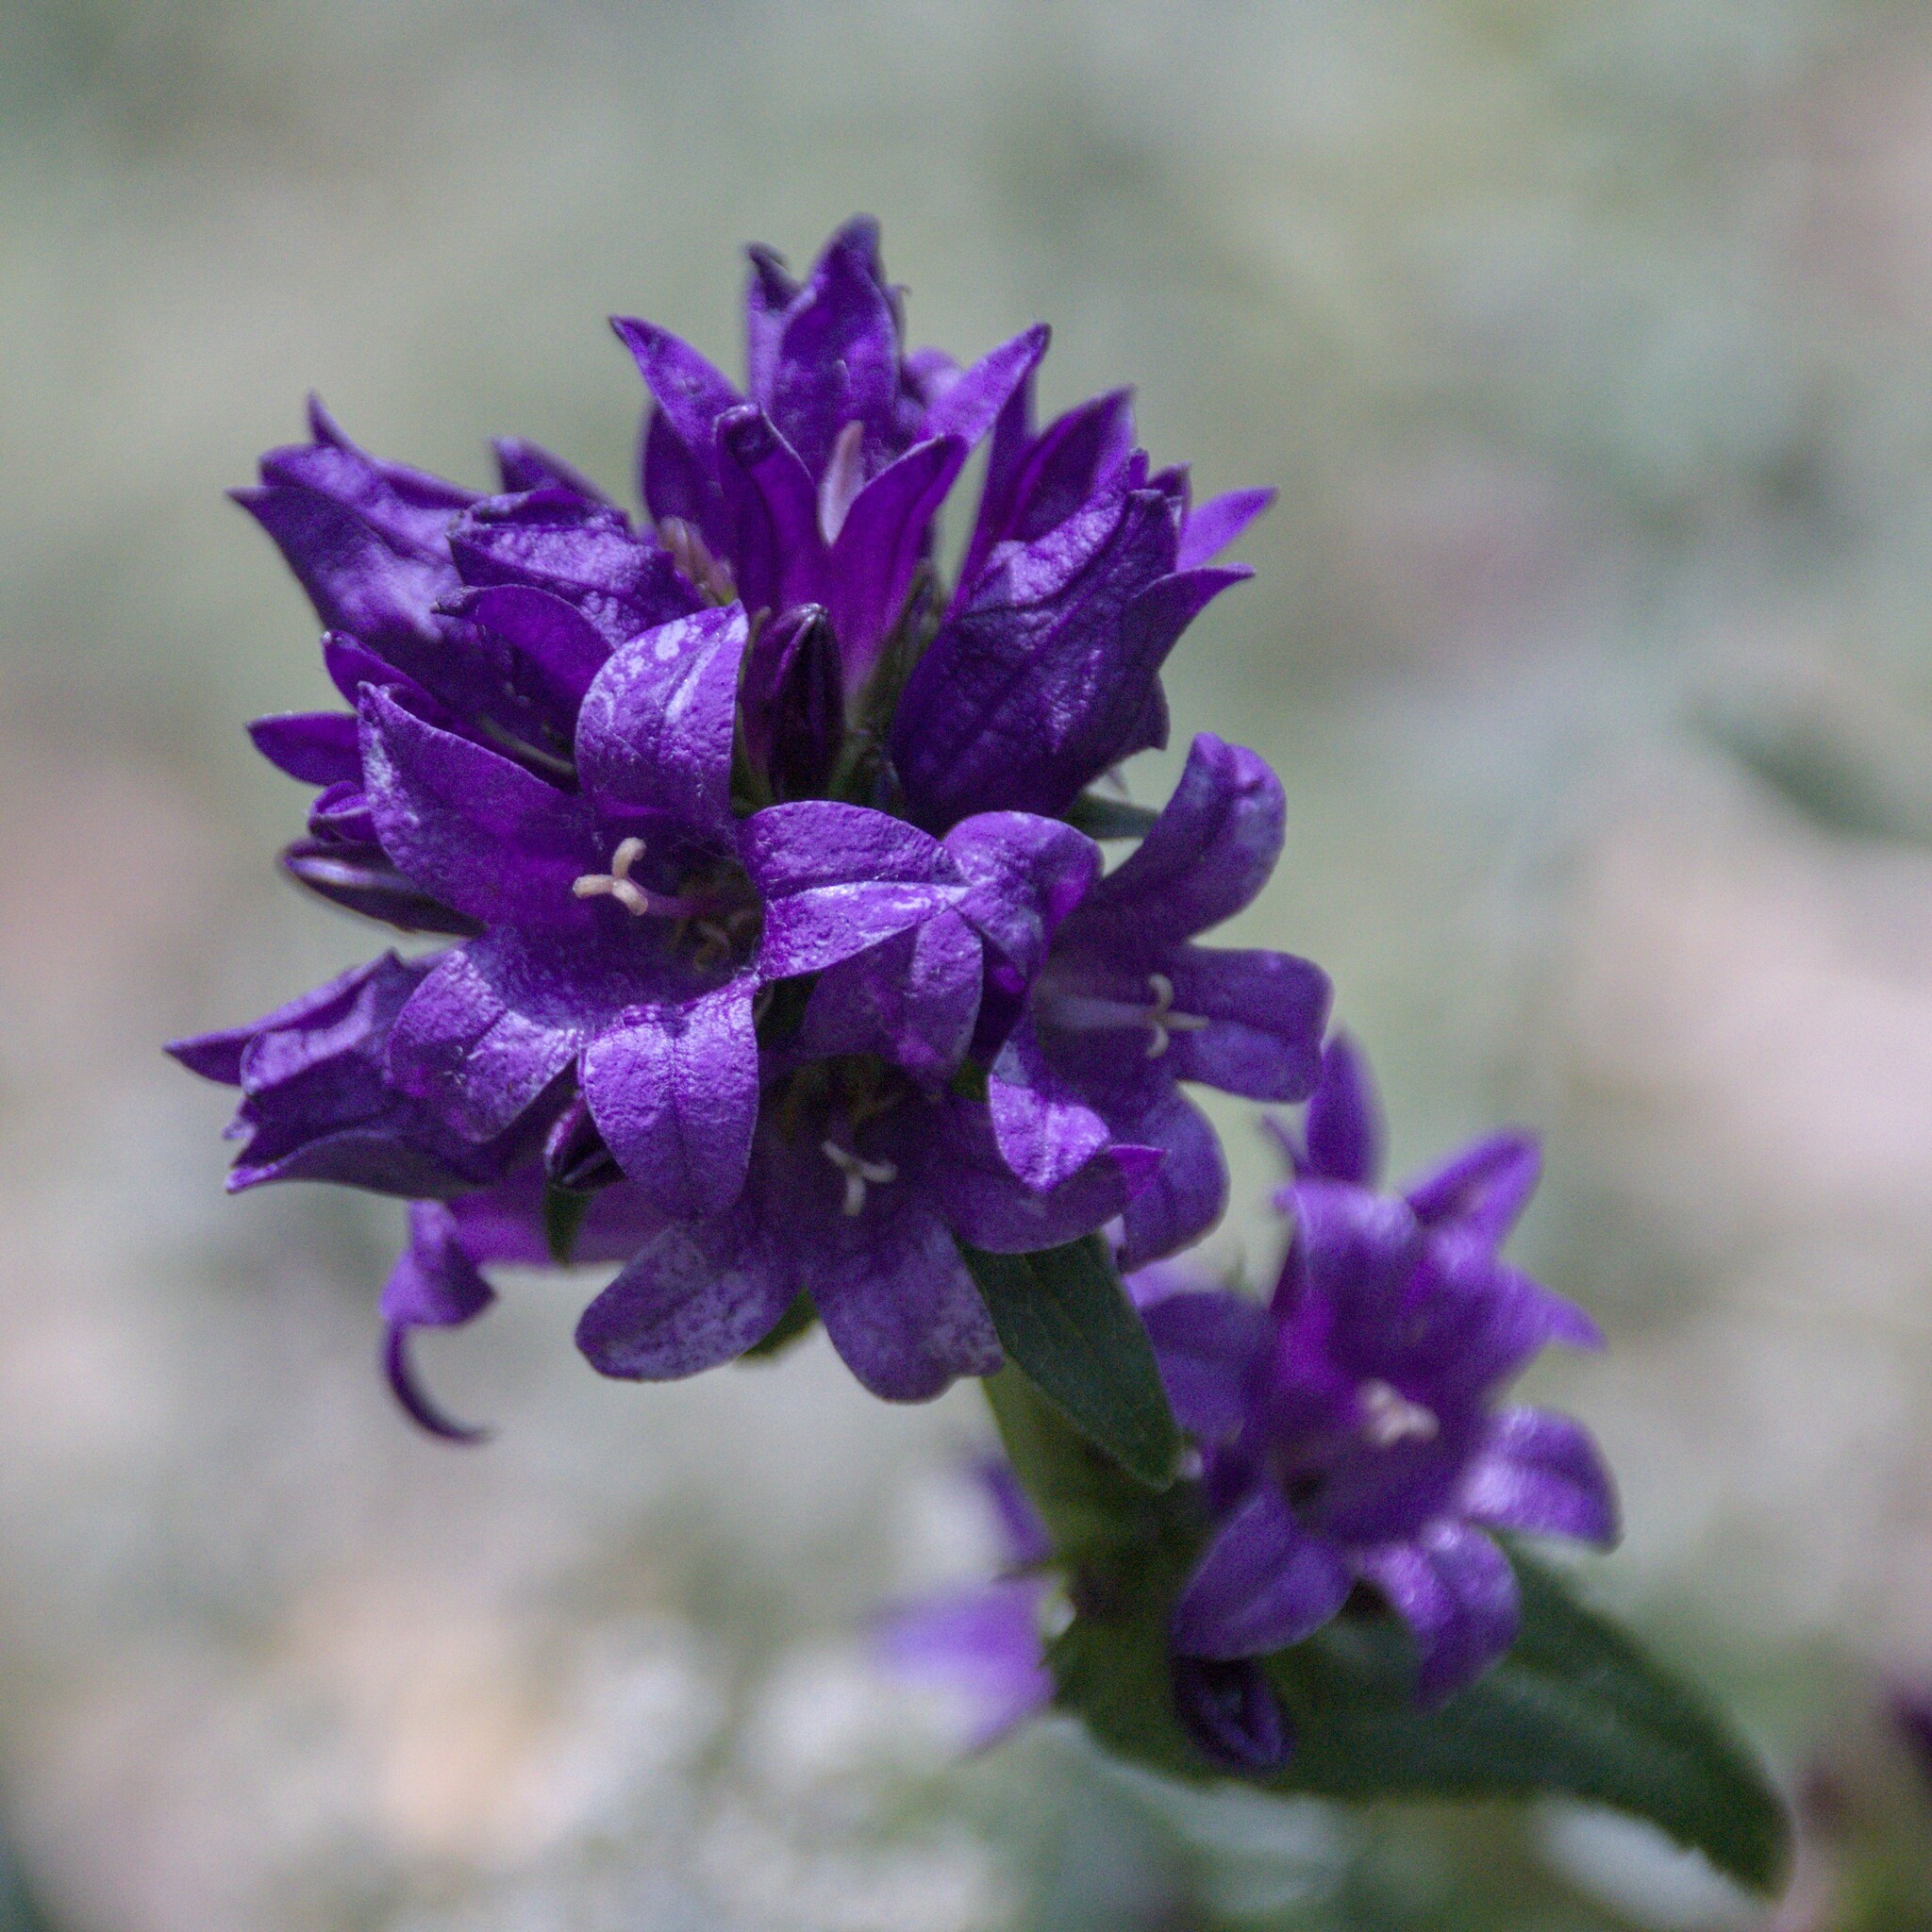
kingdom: Plantae
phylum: Tracheophyta
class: Magnoliopsida
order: Asterales
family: Campanulaceae
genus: Campanula
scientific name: Campanula glomerata
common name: Clustered bellflower
